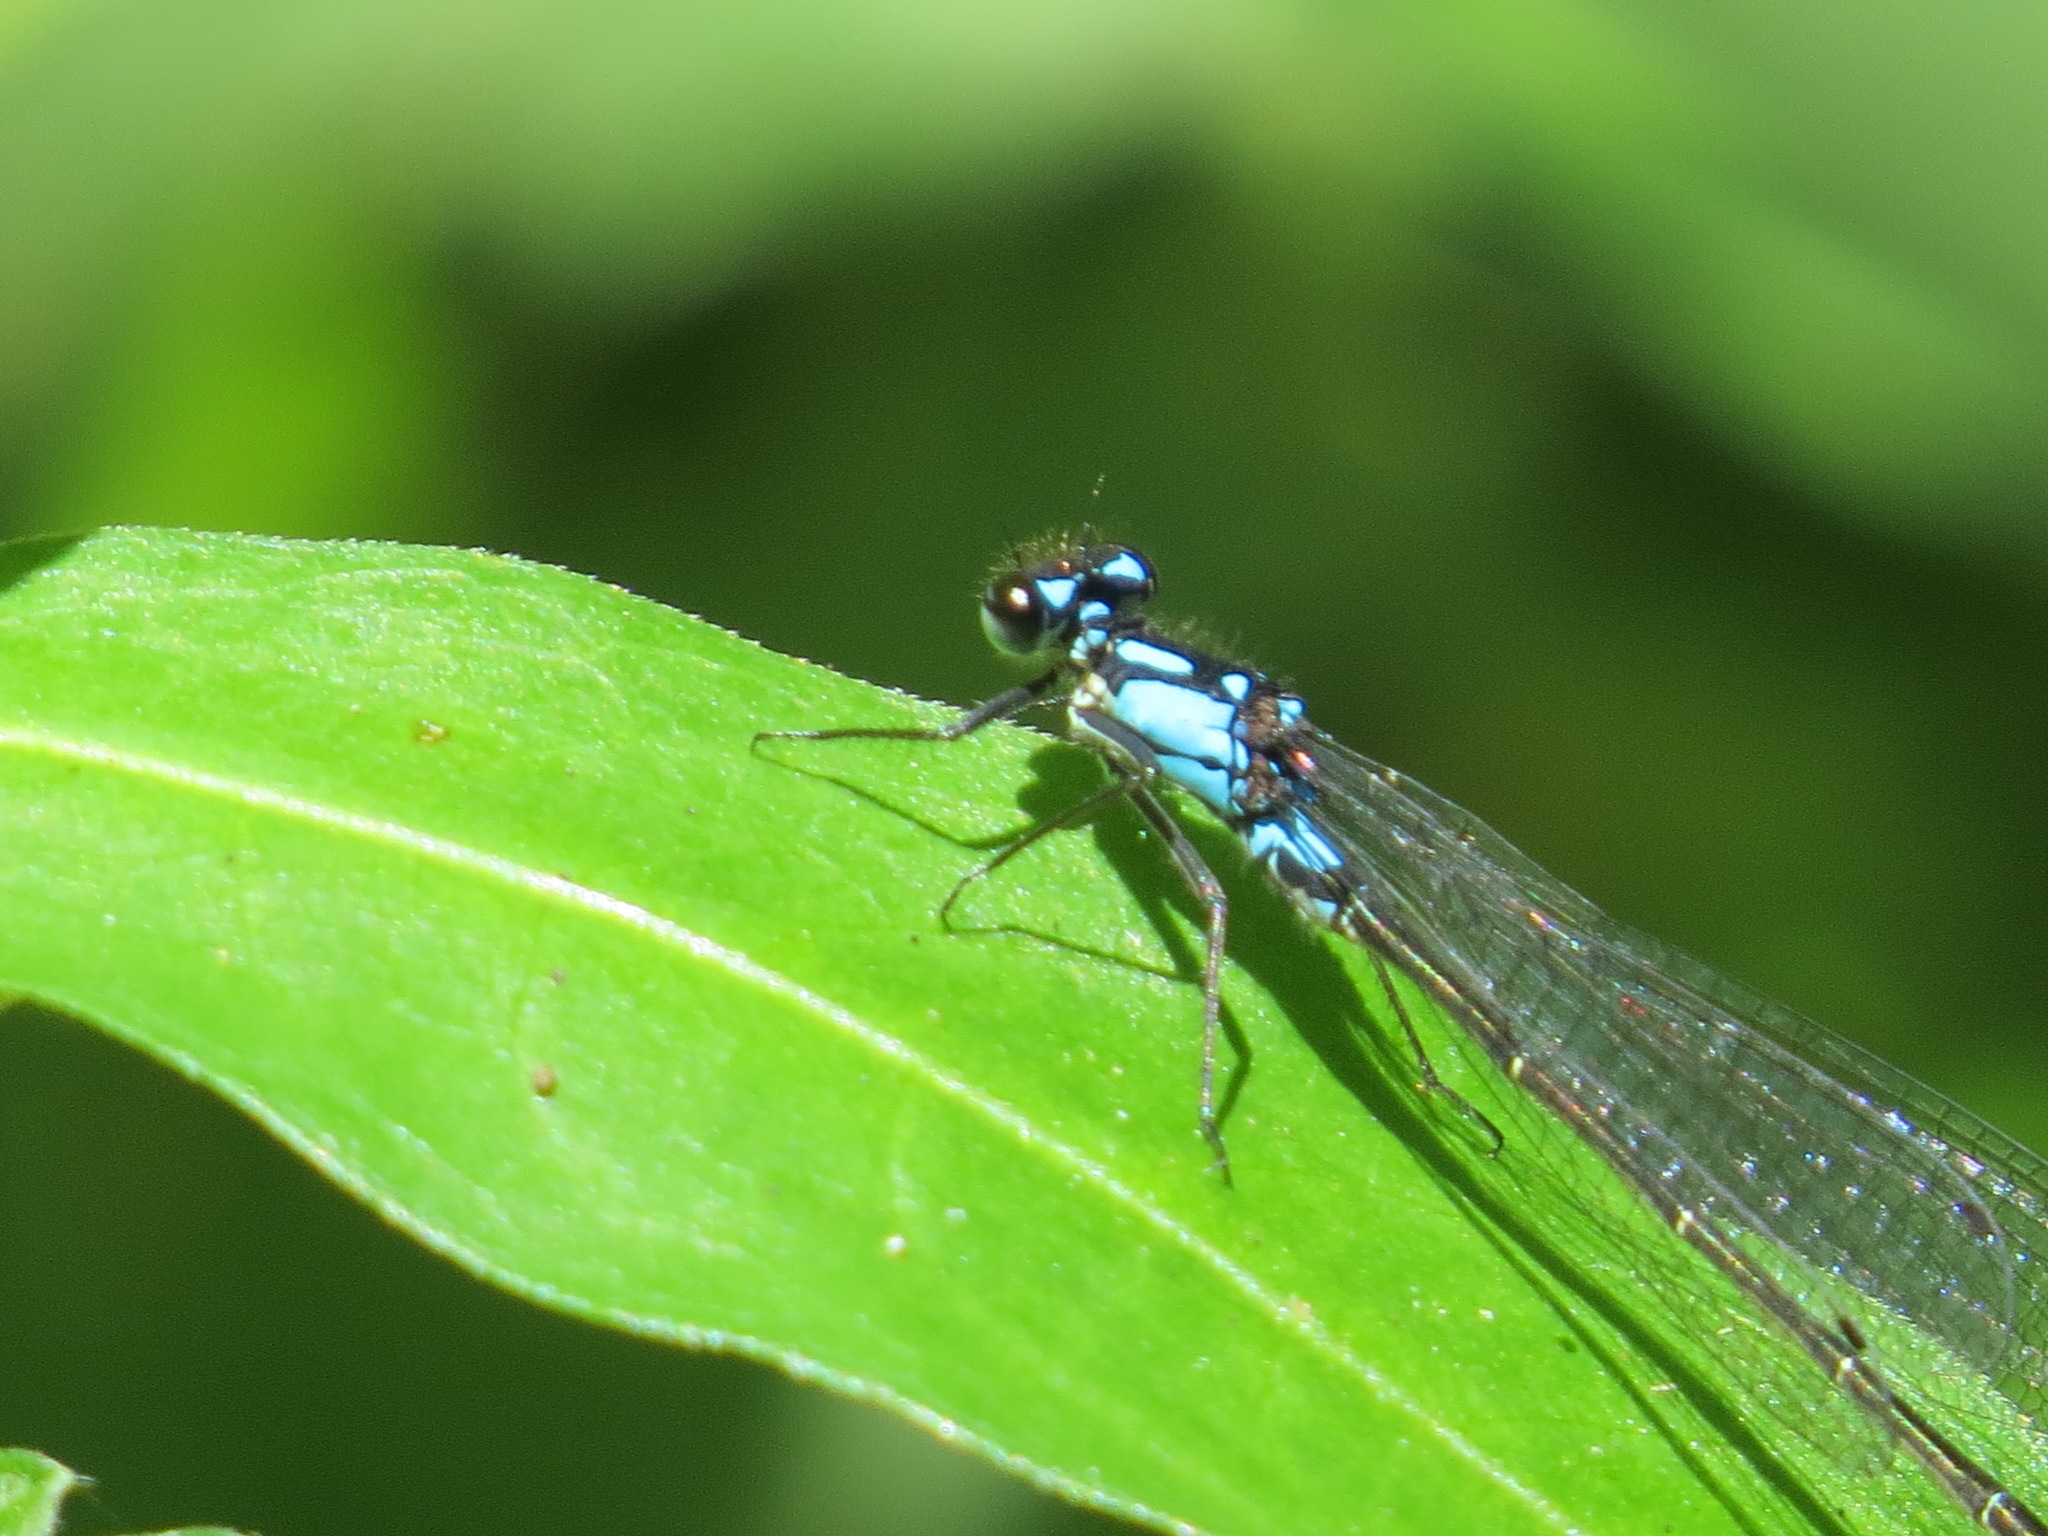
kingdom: Animalia
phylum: Arthropoda
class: Insecta
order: Odonata
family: Coenagrionidae
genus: Zoniagrion
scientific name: Zoniagrion exclamationis
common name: Exclamation damsel
